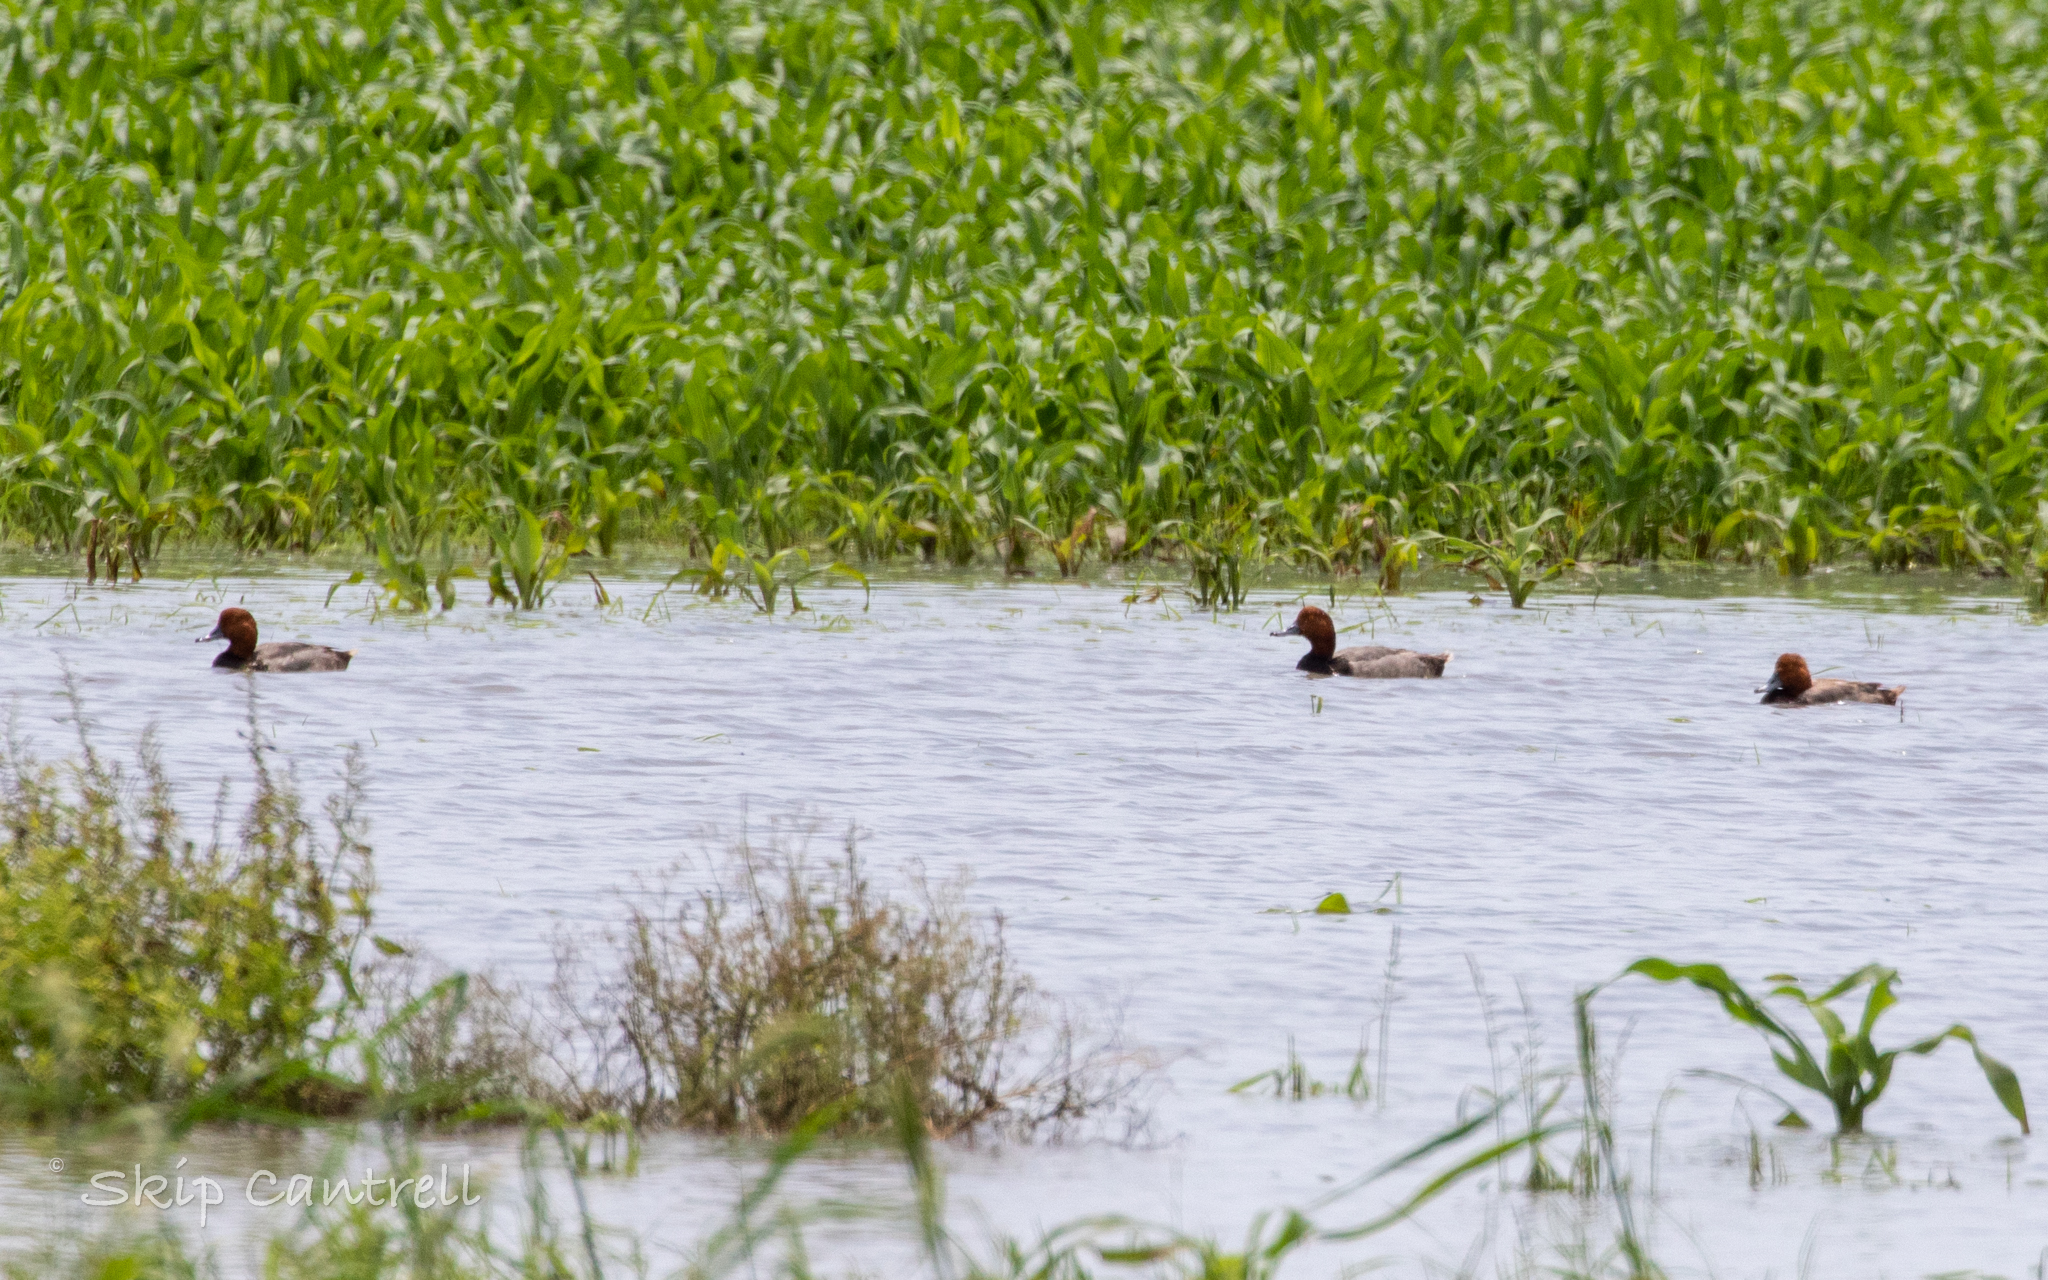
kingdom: Animalia
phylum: Chordata
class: Aves
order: Anseriformes
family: Anatidae
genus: Aythya
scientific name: Aythya americana
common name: Redhead
